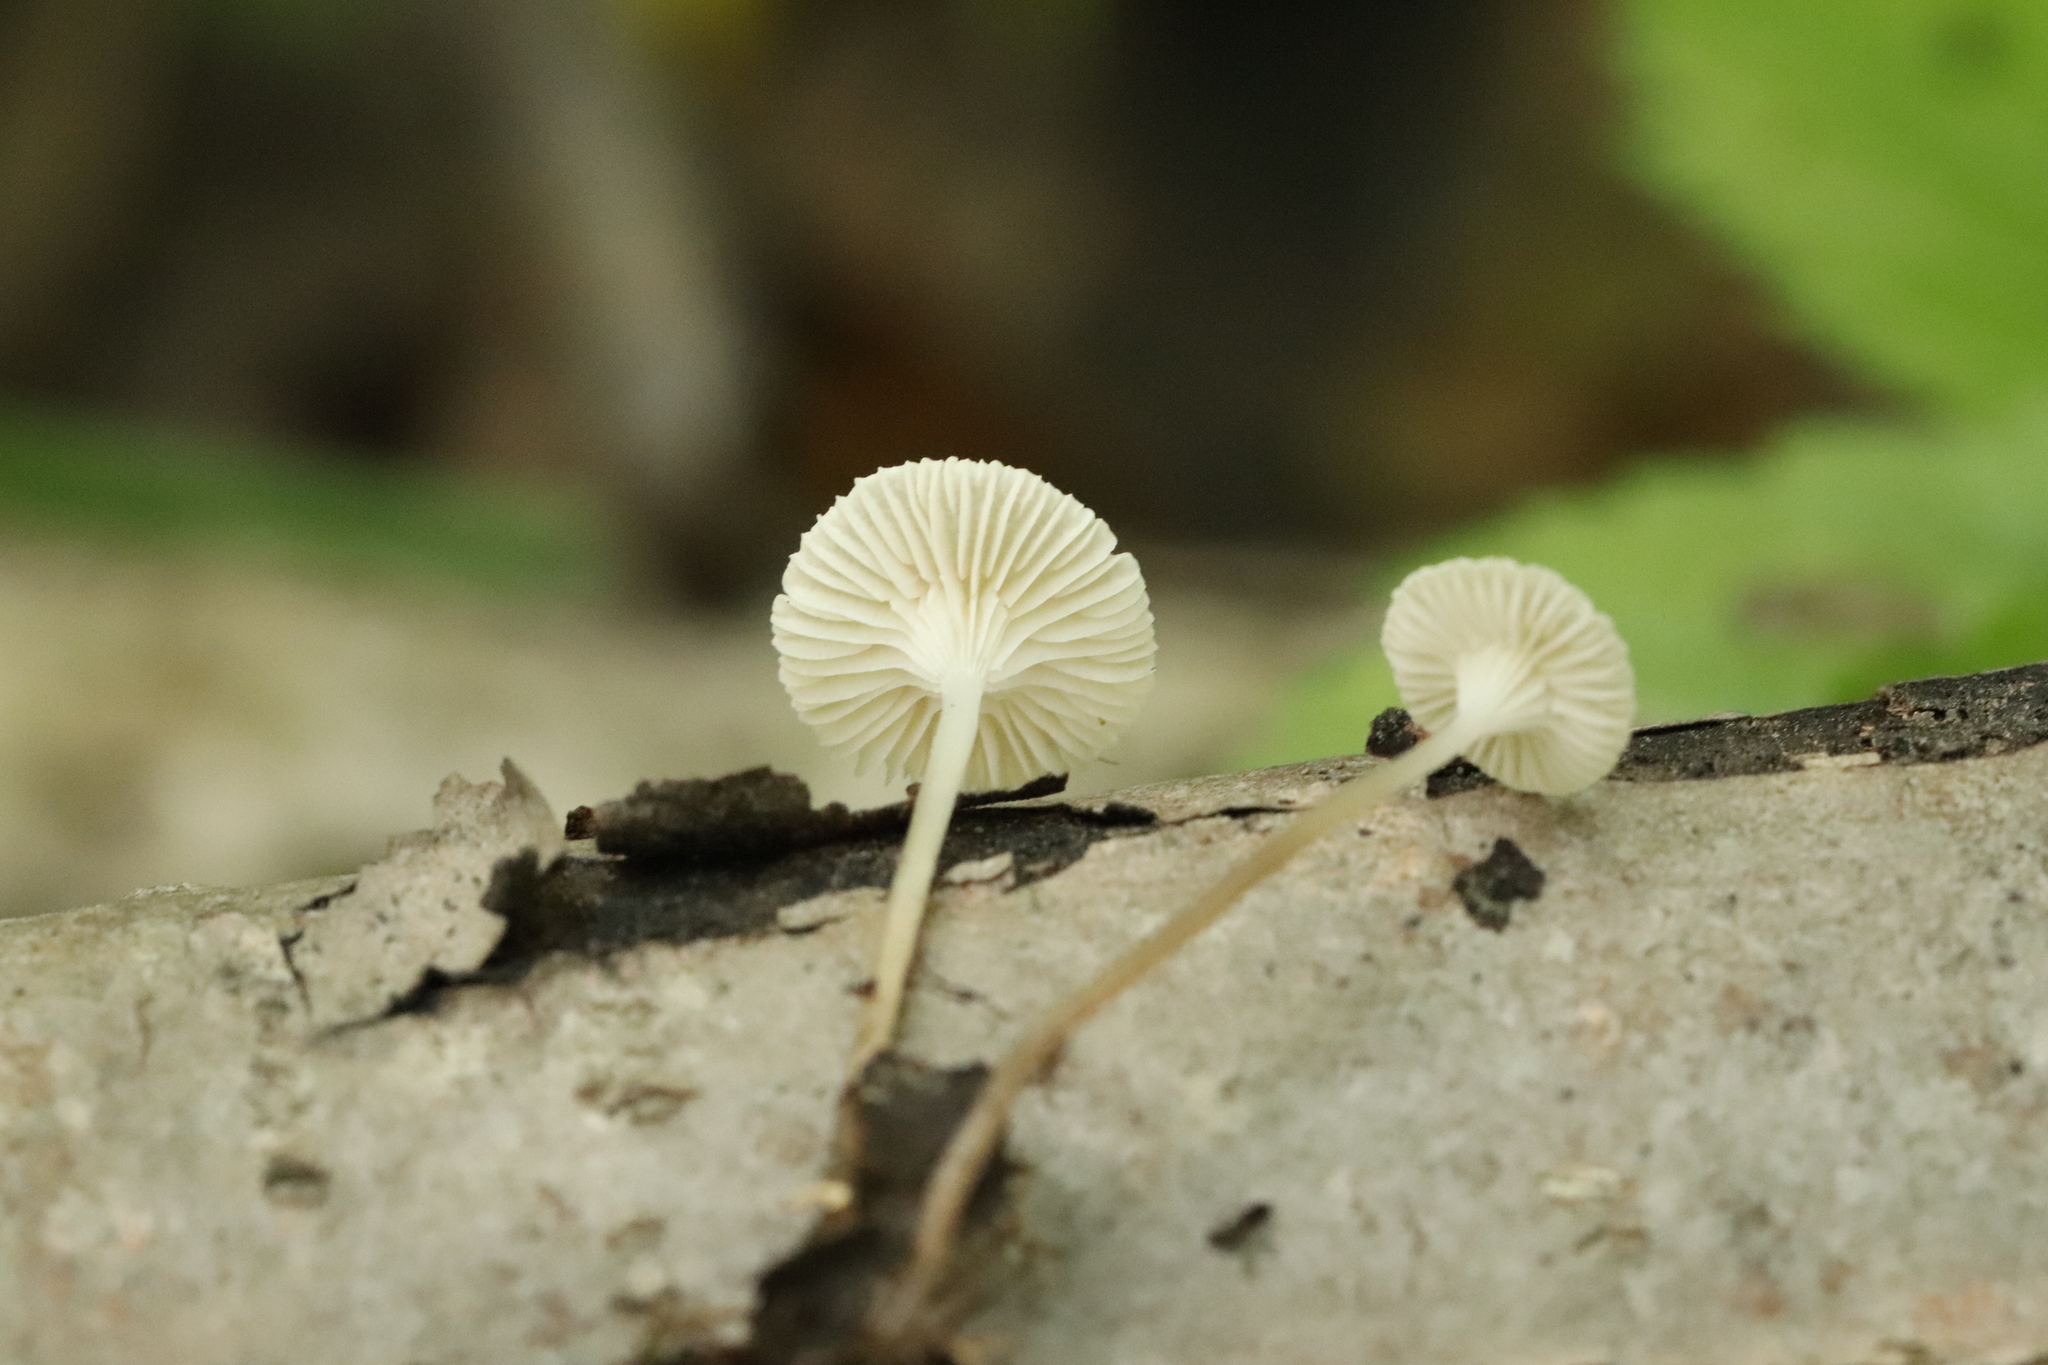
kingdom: Fungi
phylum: Basidiomycota
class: Agaricomycetes
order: Agaricales
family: Mycenaceae
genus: Roridomyces
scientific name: Roridomyces roridus
